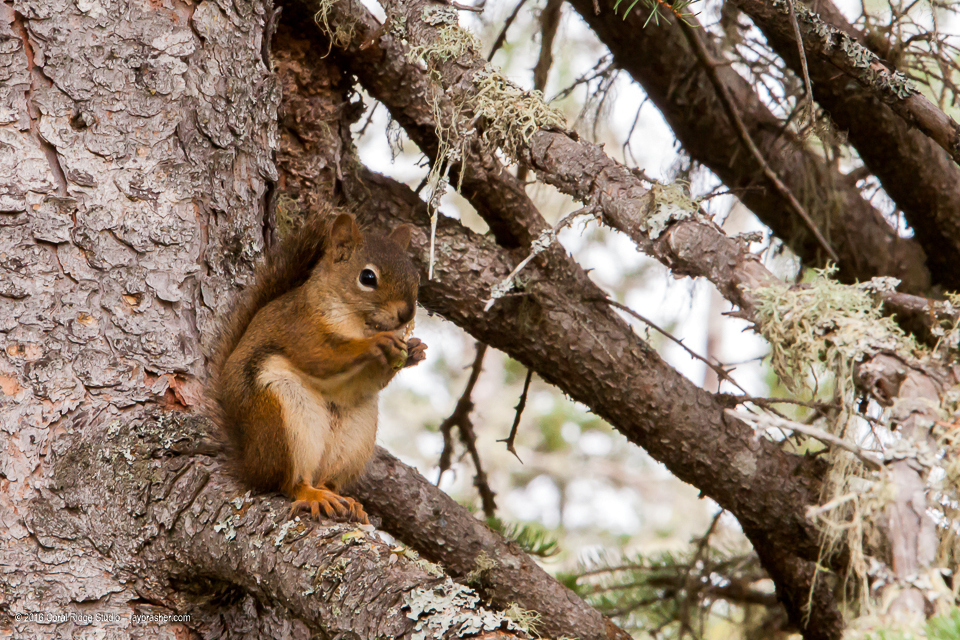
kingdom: Animalia
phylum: Chordata
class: Mammalia
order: Rodentia
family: Sciuridae
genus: Tamiasciurus
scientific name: Tamiasciurus hudsonicus
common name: Red squirrel
